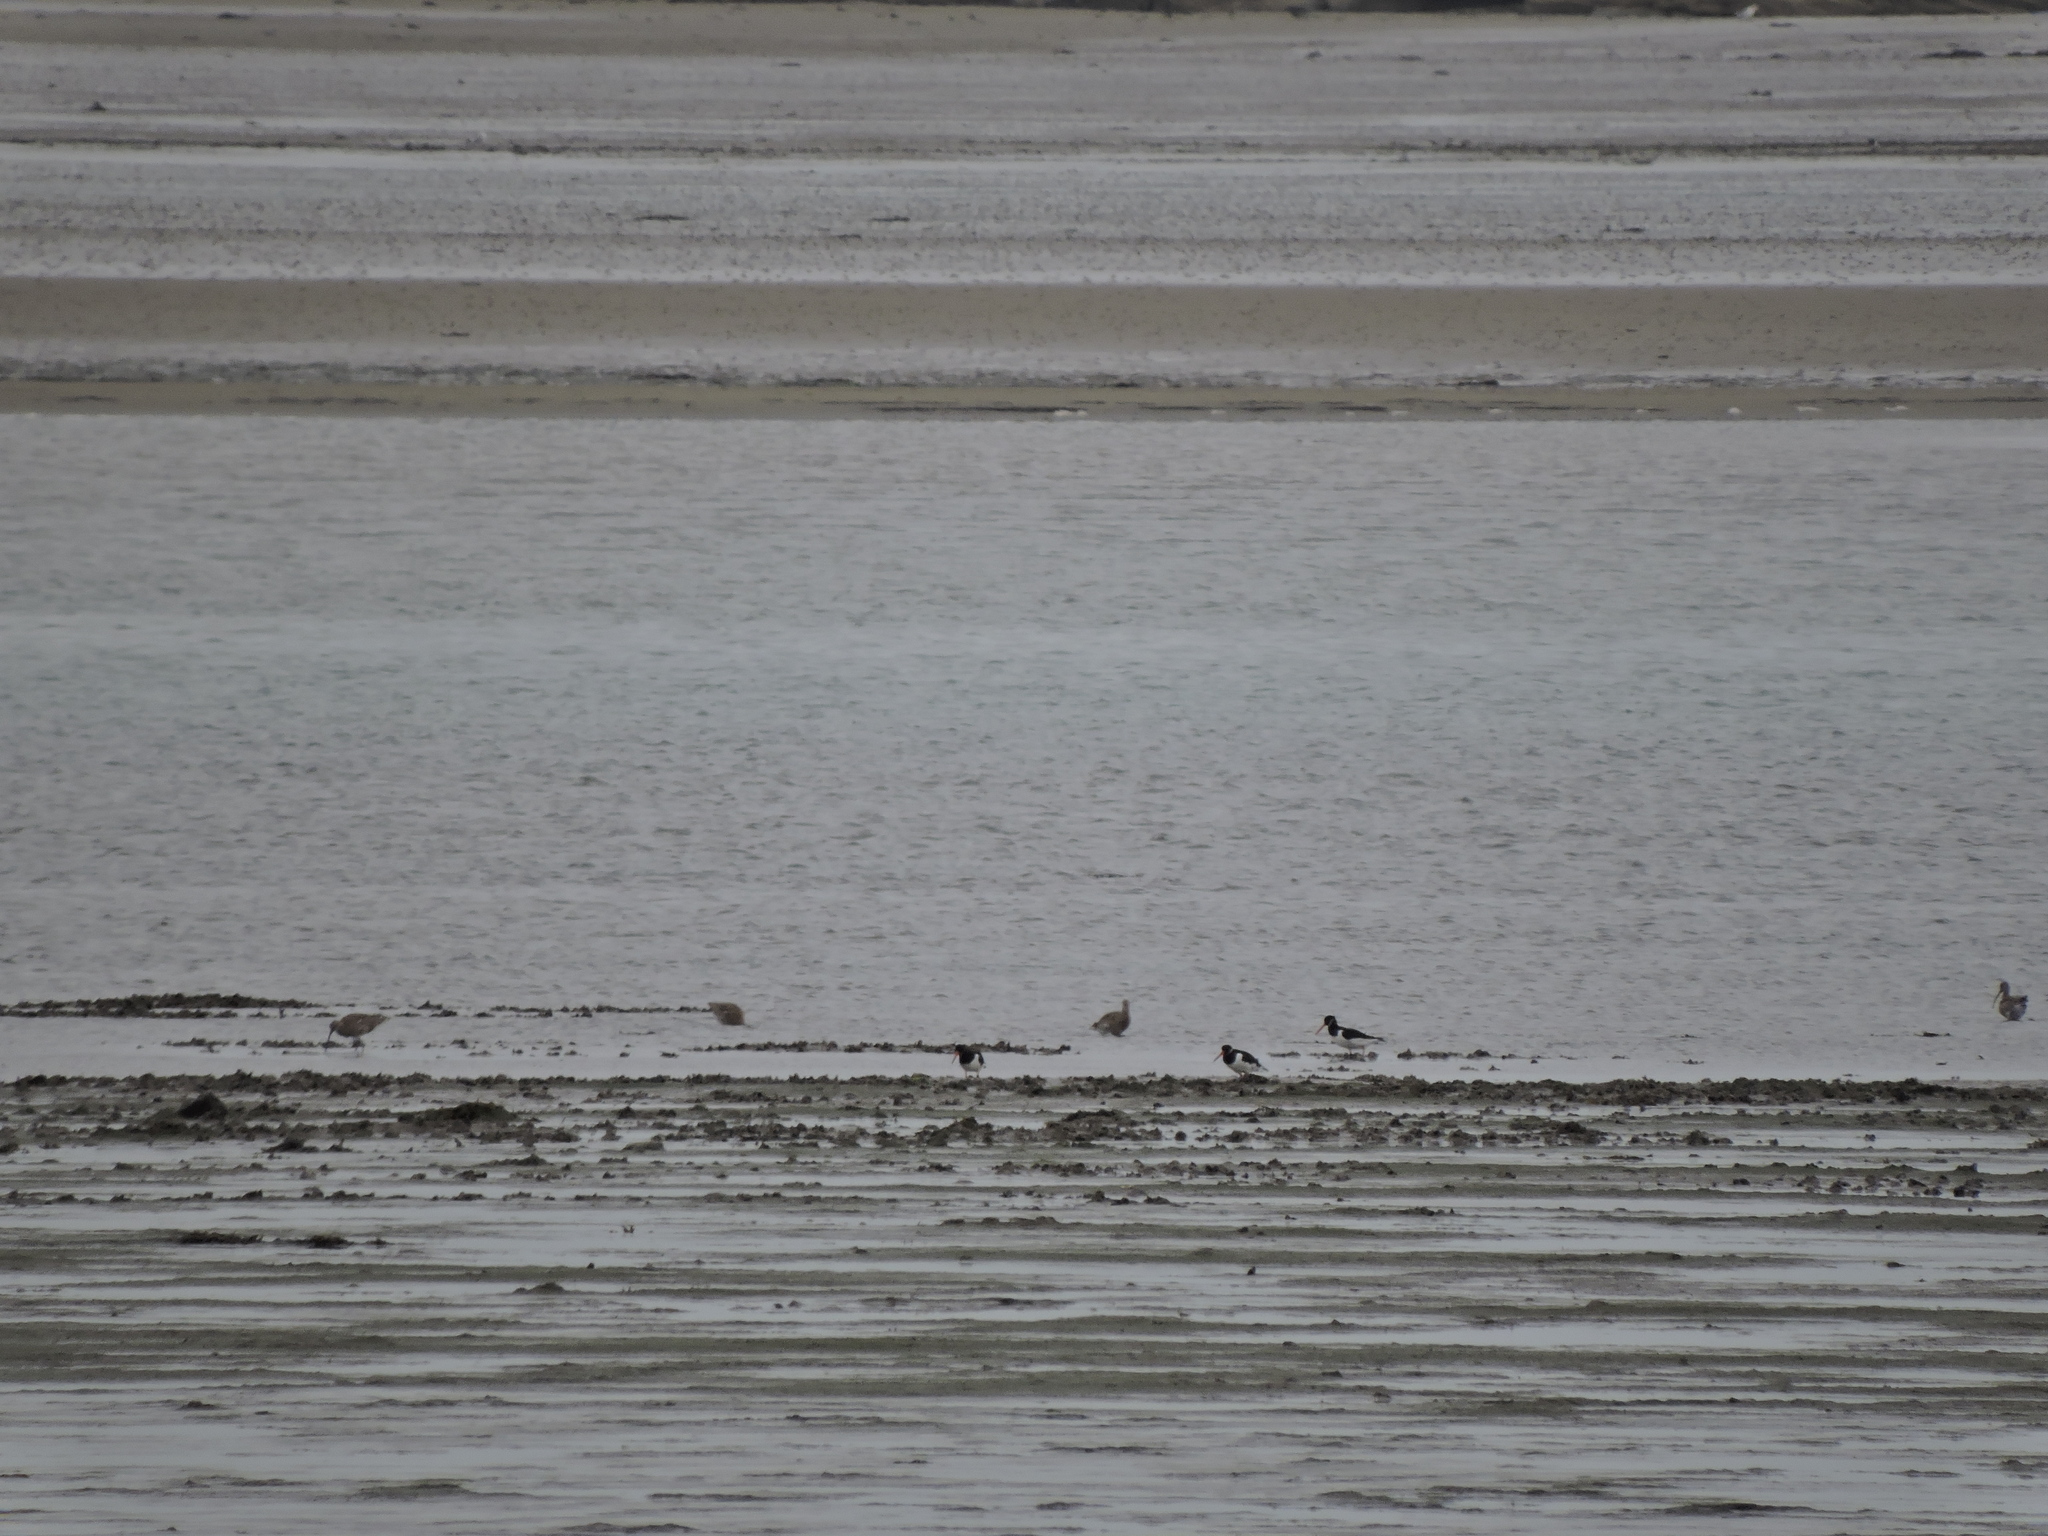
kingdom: Animalia
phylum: Chordata
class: Aves
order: Charadriiformes
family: Haematopodidae
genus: Haematopus
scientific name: Haematopus ostralegus
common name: Eurasian oystercatcher
